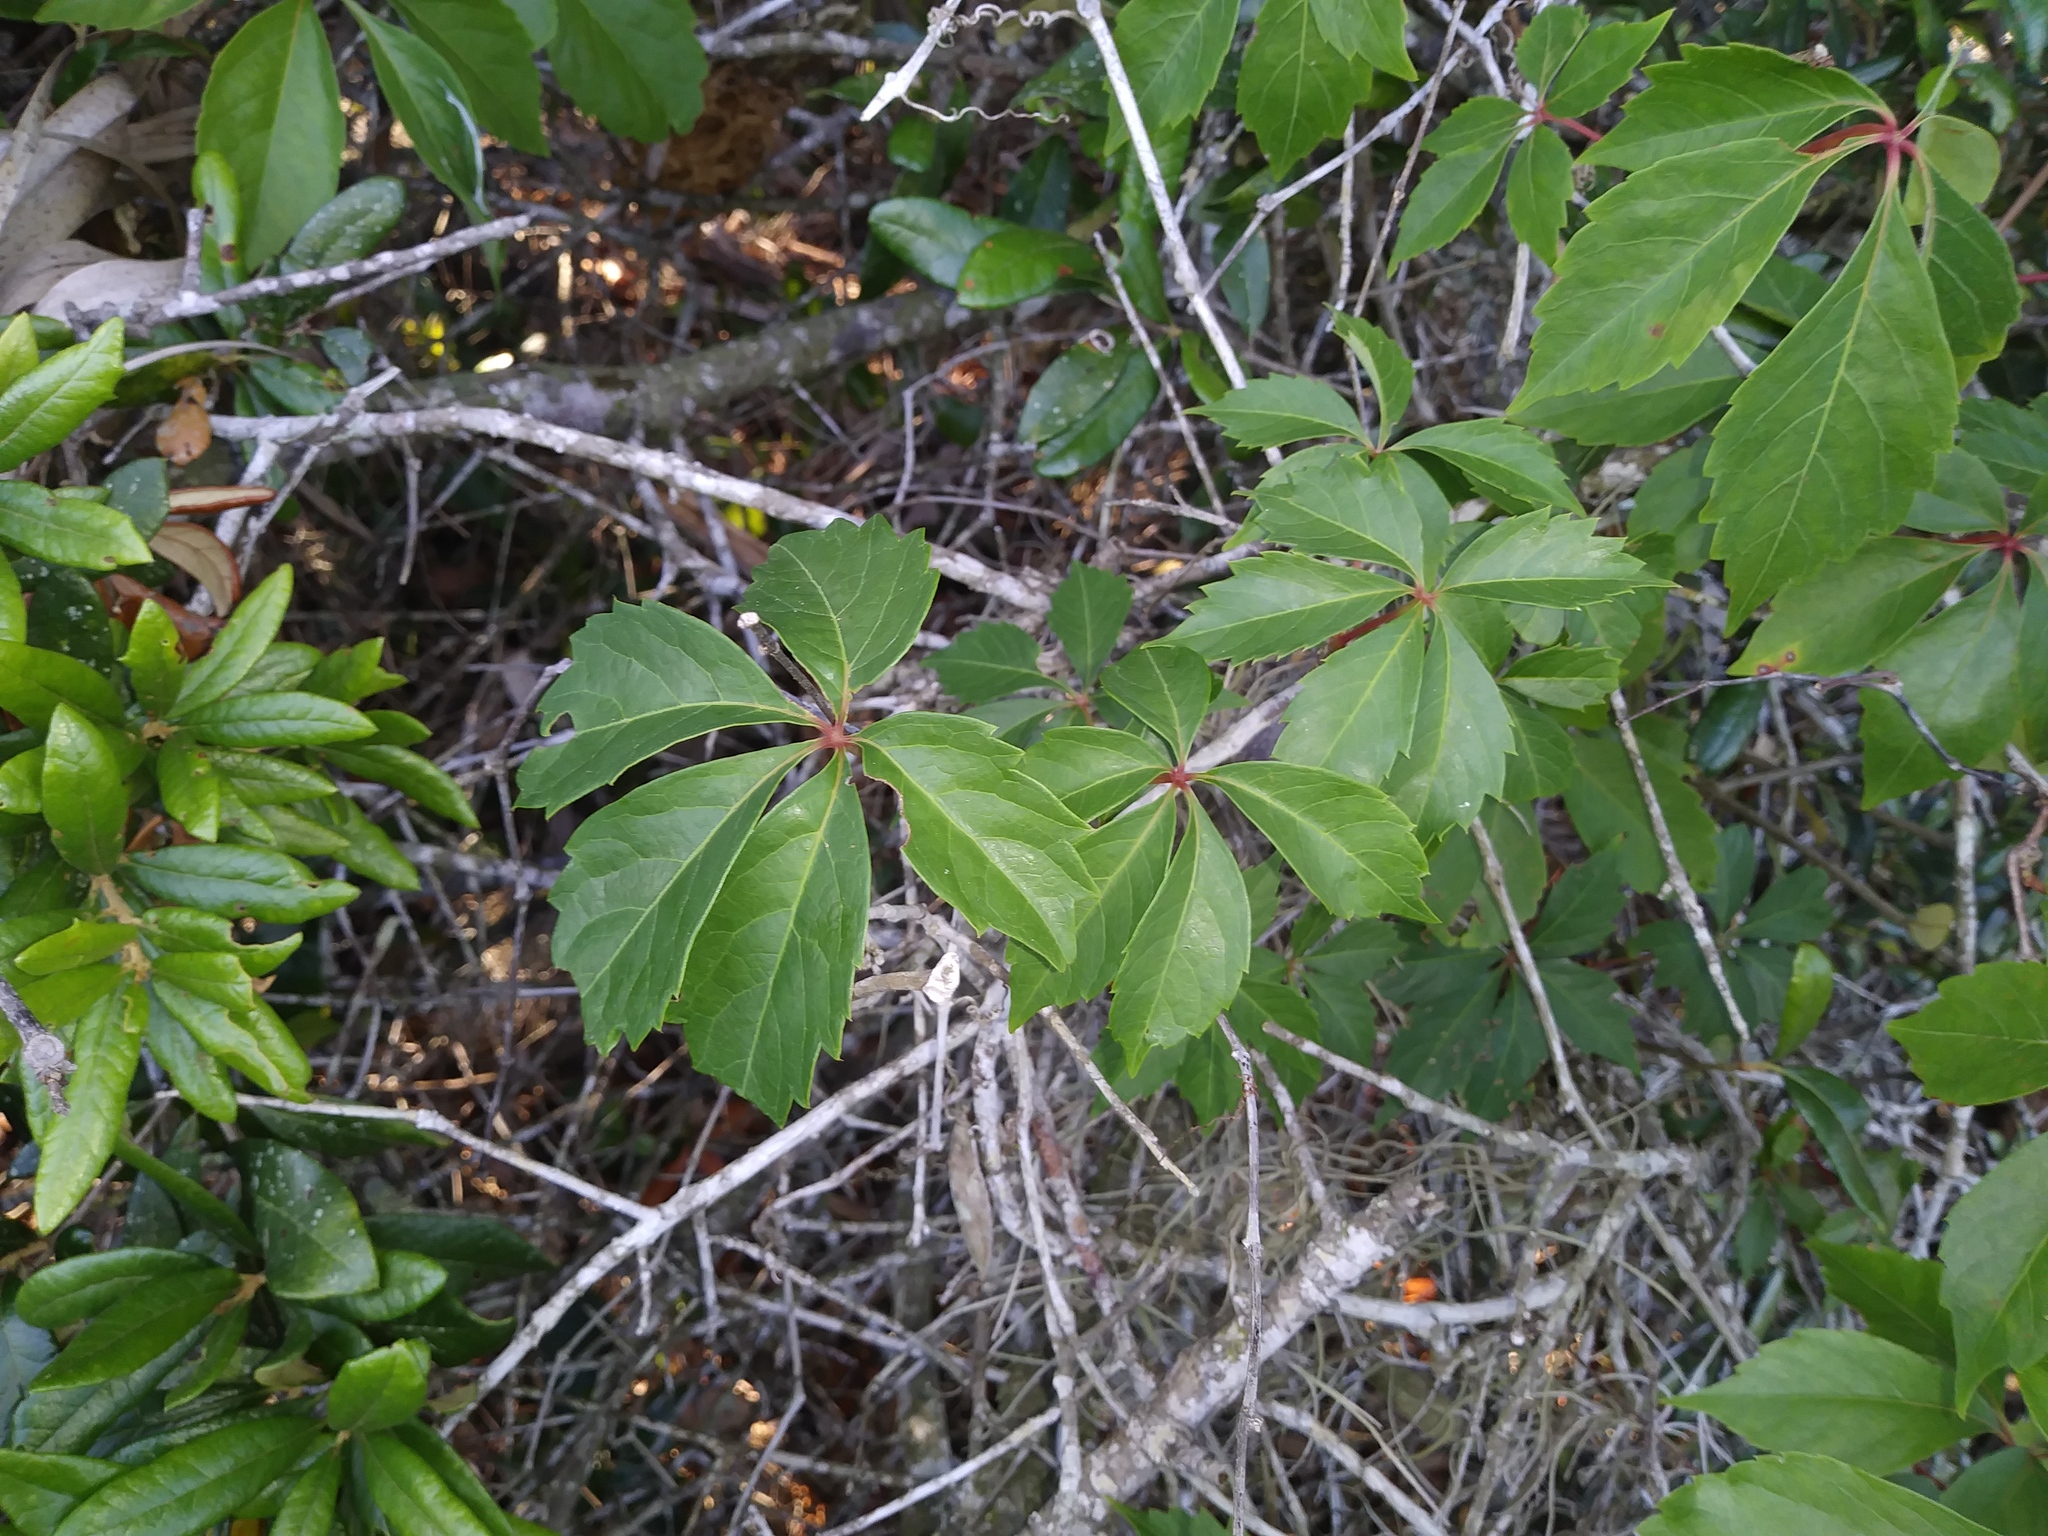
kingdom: Plantae
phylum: Tracheophyta
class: Magnoliopsida
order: Vitales
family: Vitaceae
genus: Parthenocissus
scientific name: Parthenocissus quinquefolia
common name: Virginia-creeper
